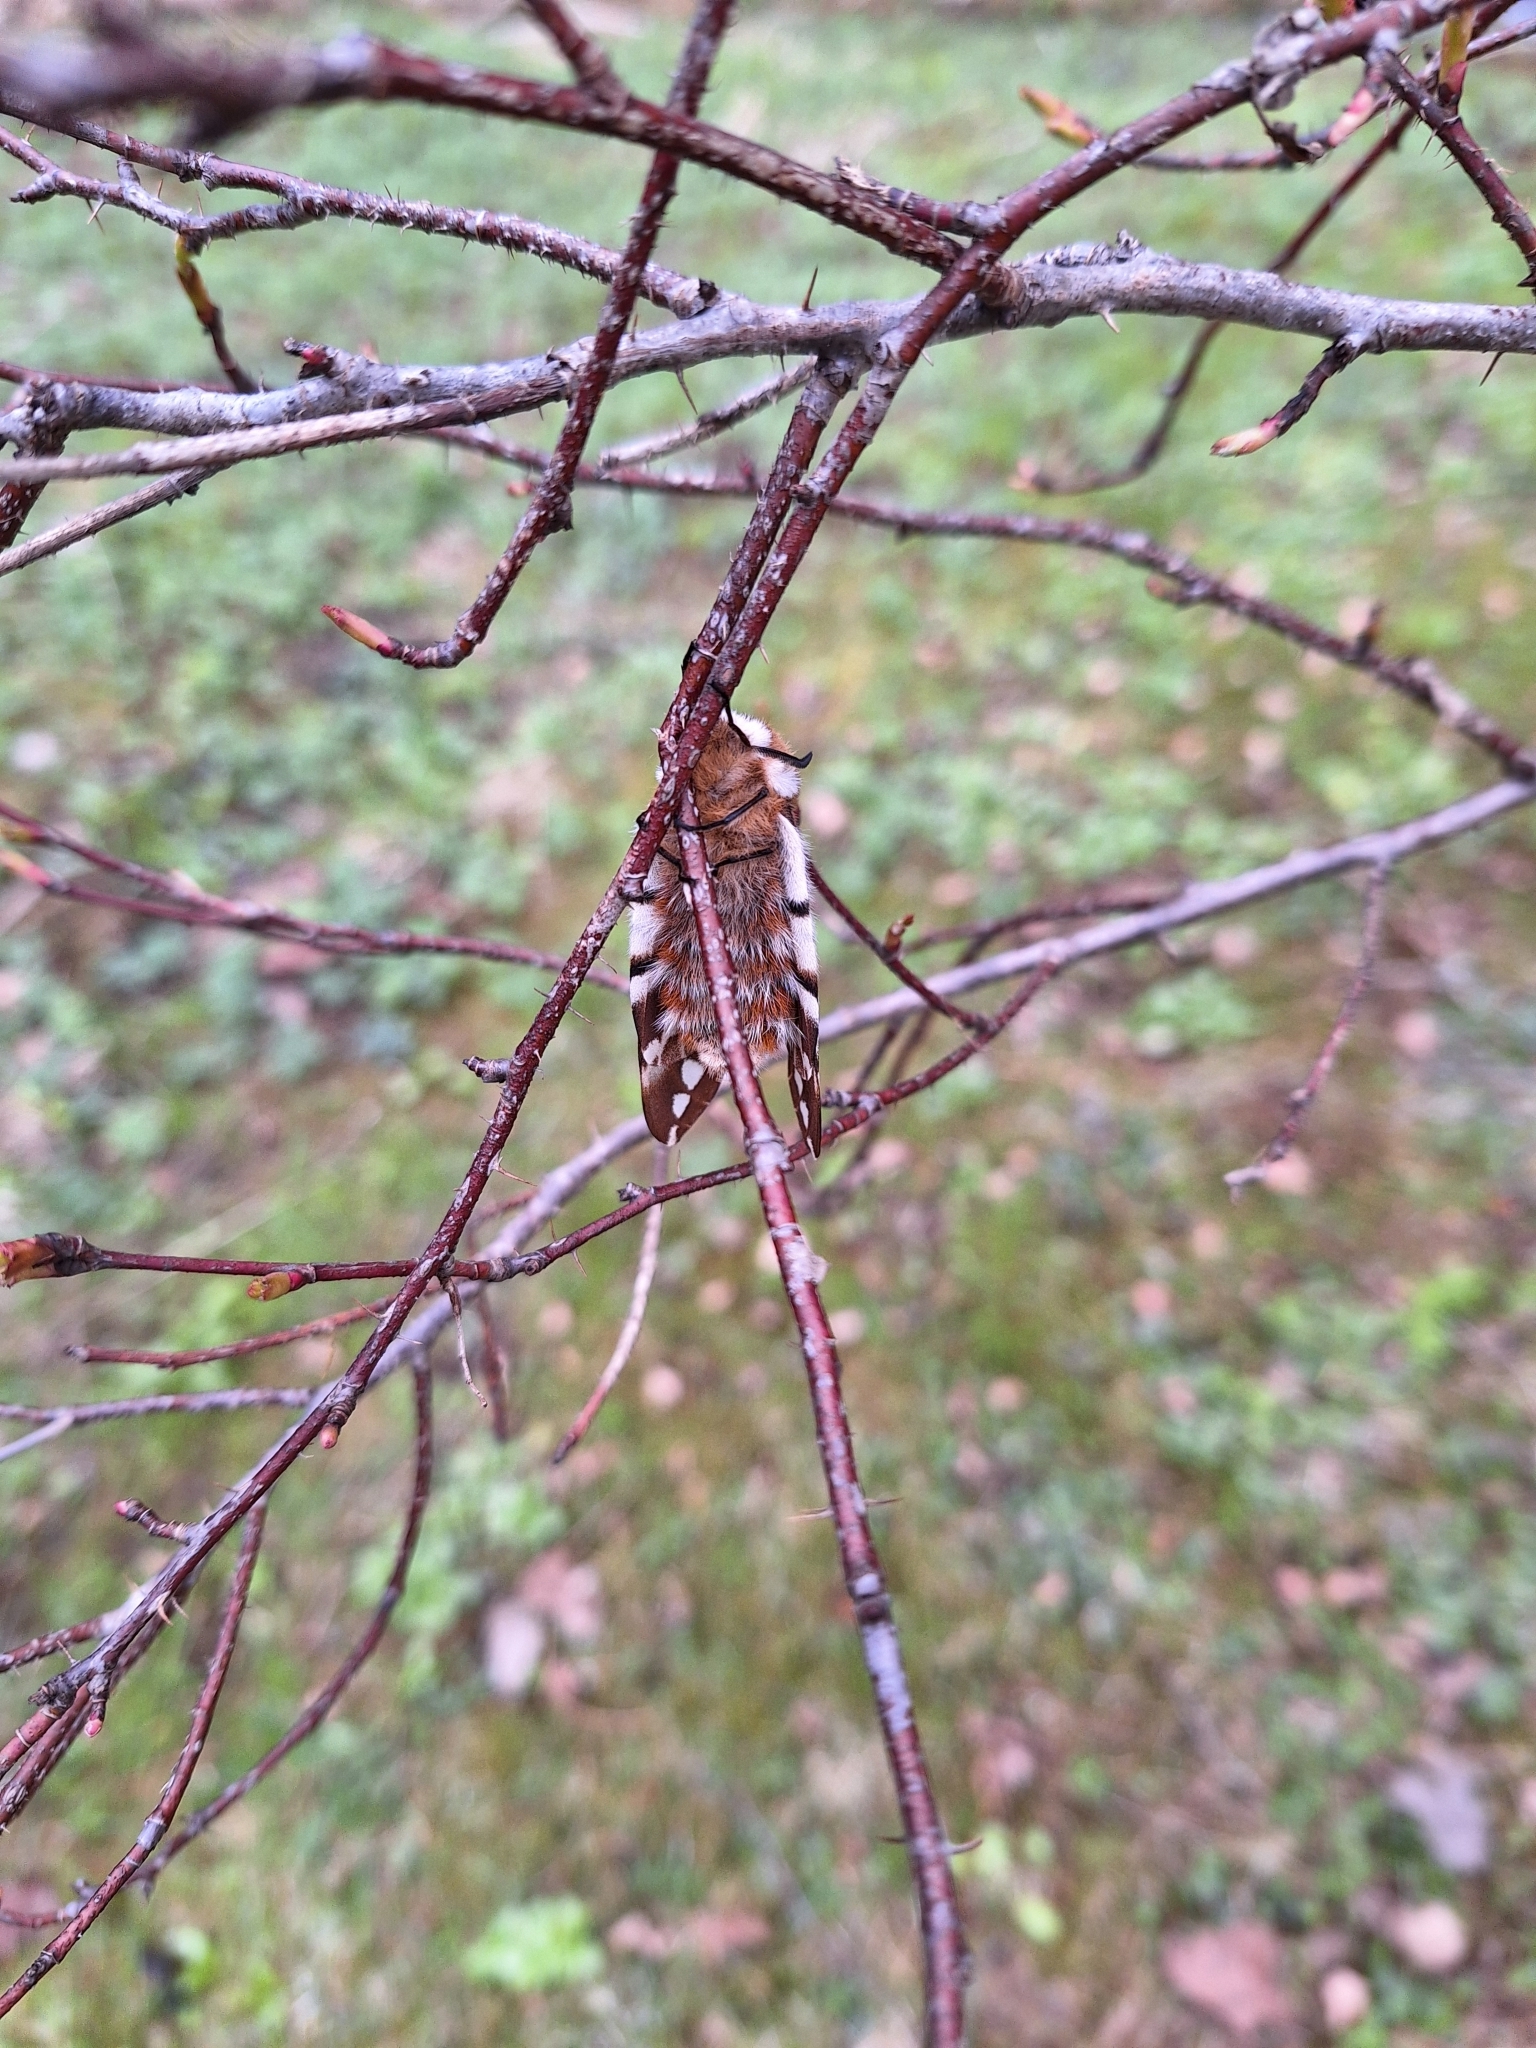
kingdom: Animalia
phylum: Arthropoda
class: Insecta
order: Lepidoptera
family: Endromidae
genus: Endromis
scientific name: Endromis versicolora
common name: Kentish glory
